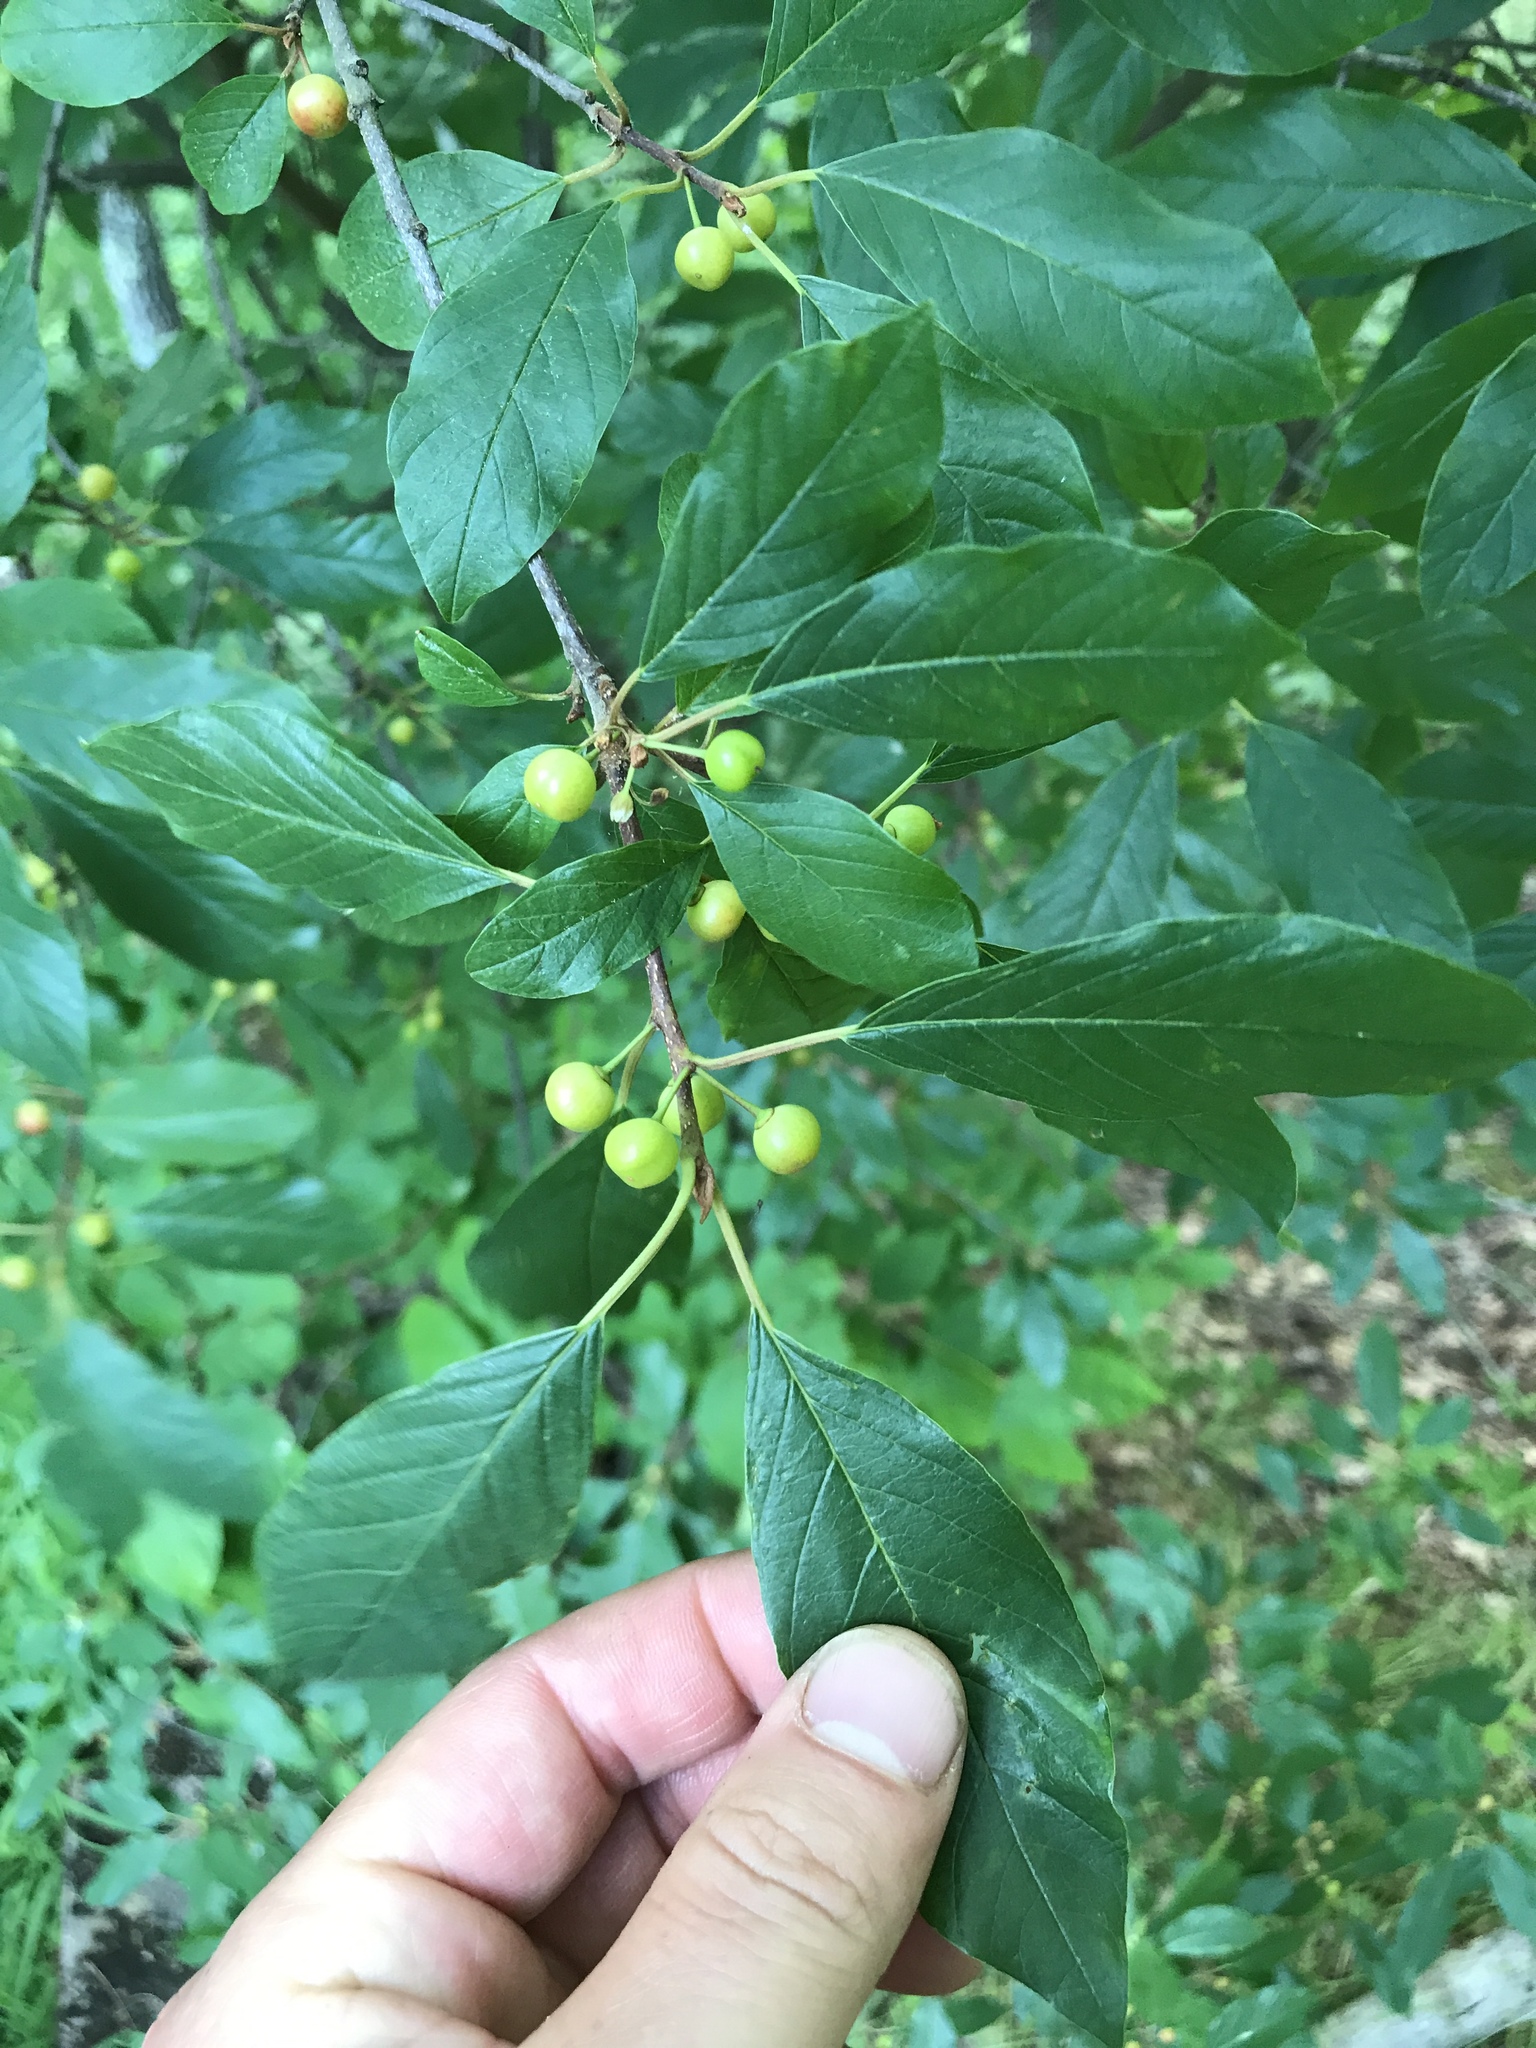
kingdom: Plantae
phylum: Tracheophyta
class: Magnoliopsida
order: Rosales
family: Rhamnaceae
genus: Frangula
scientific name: Frangula alnus
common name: Alder buckthorn
